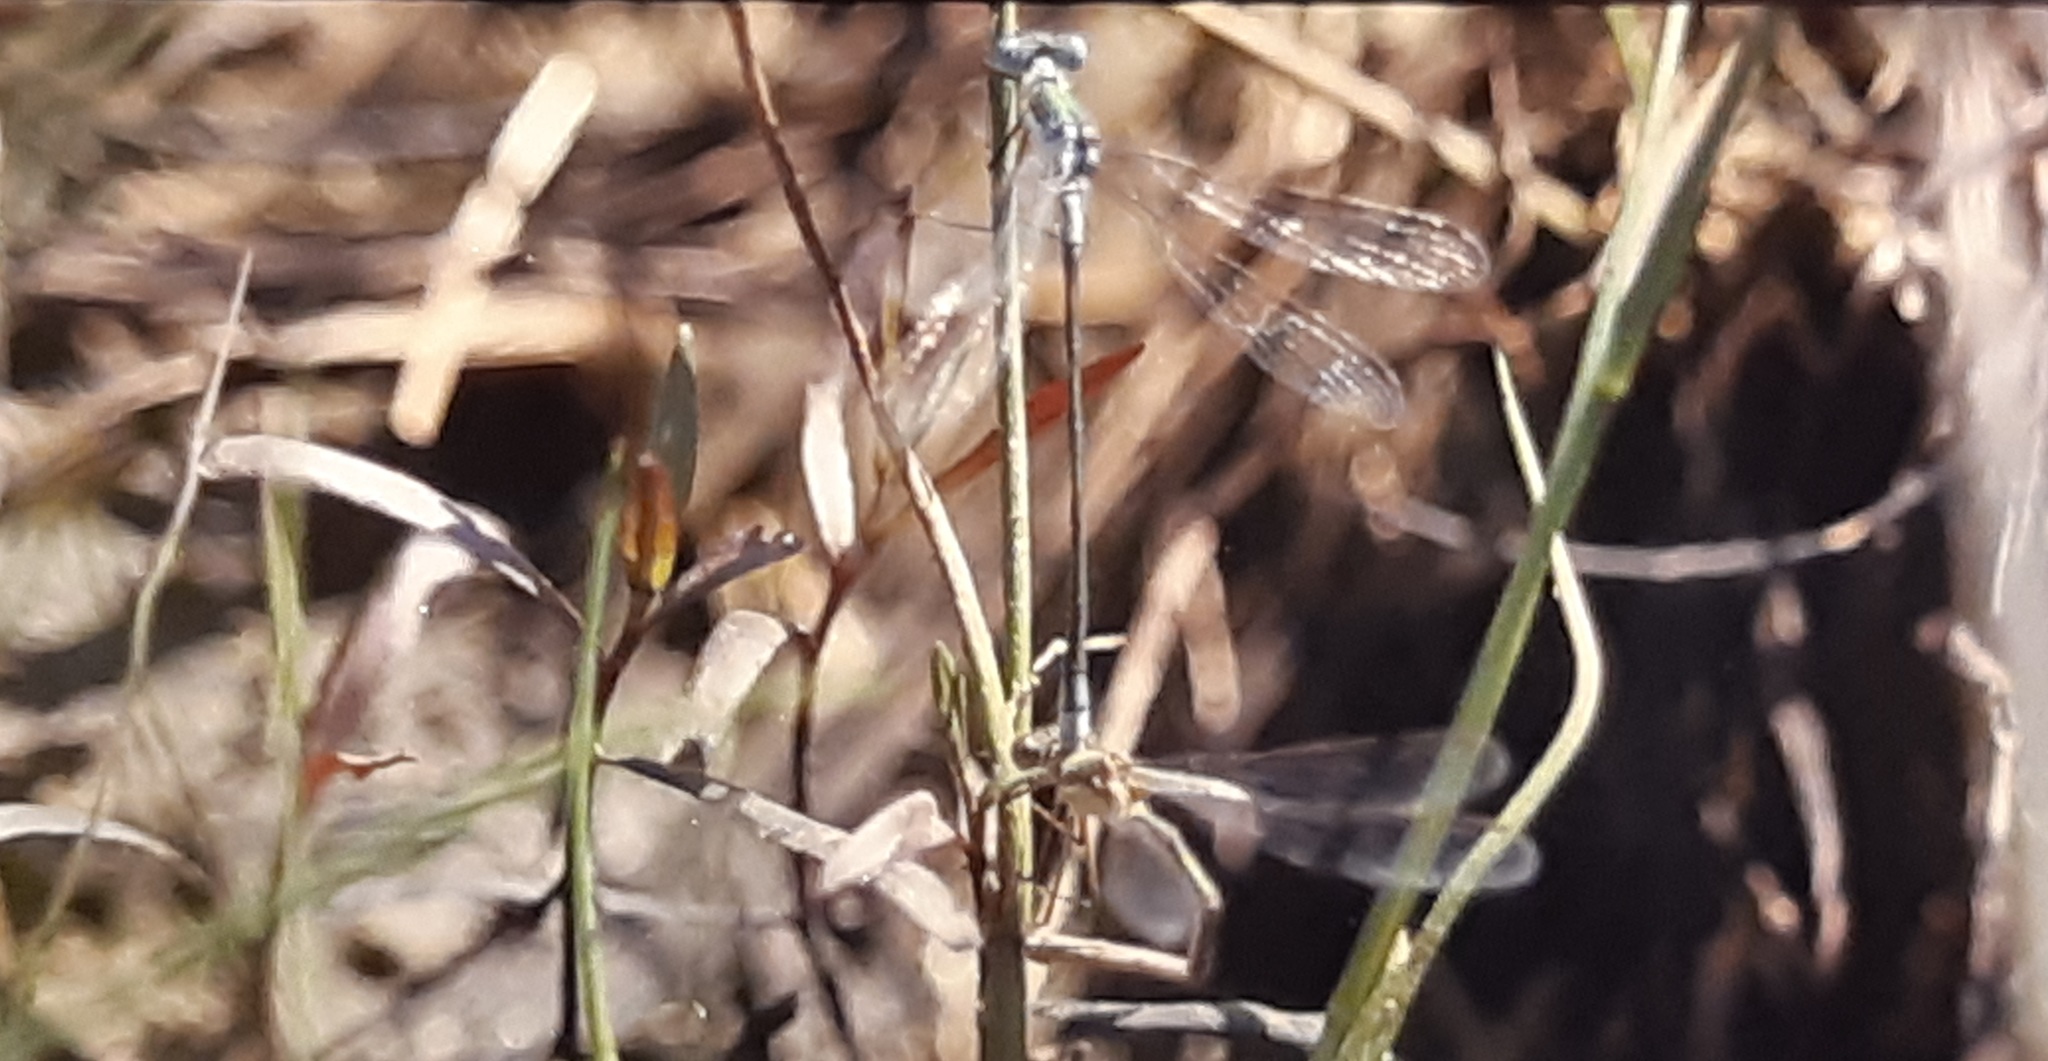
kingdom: Animalia
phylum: Arthropoda
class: Insecta
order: Odonata
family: Lestidae
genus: Lestes
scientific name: Lestes sponsa
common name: Common spreadwing
